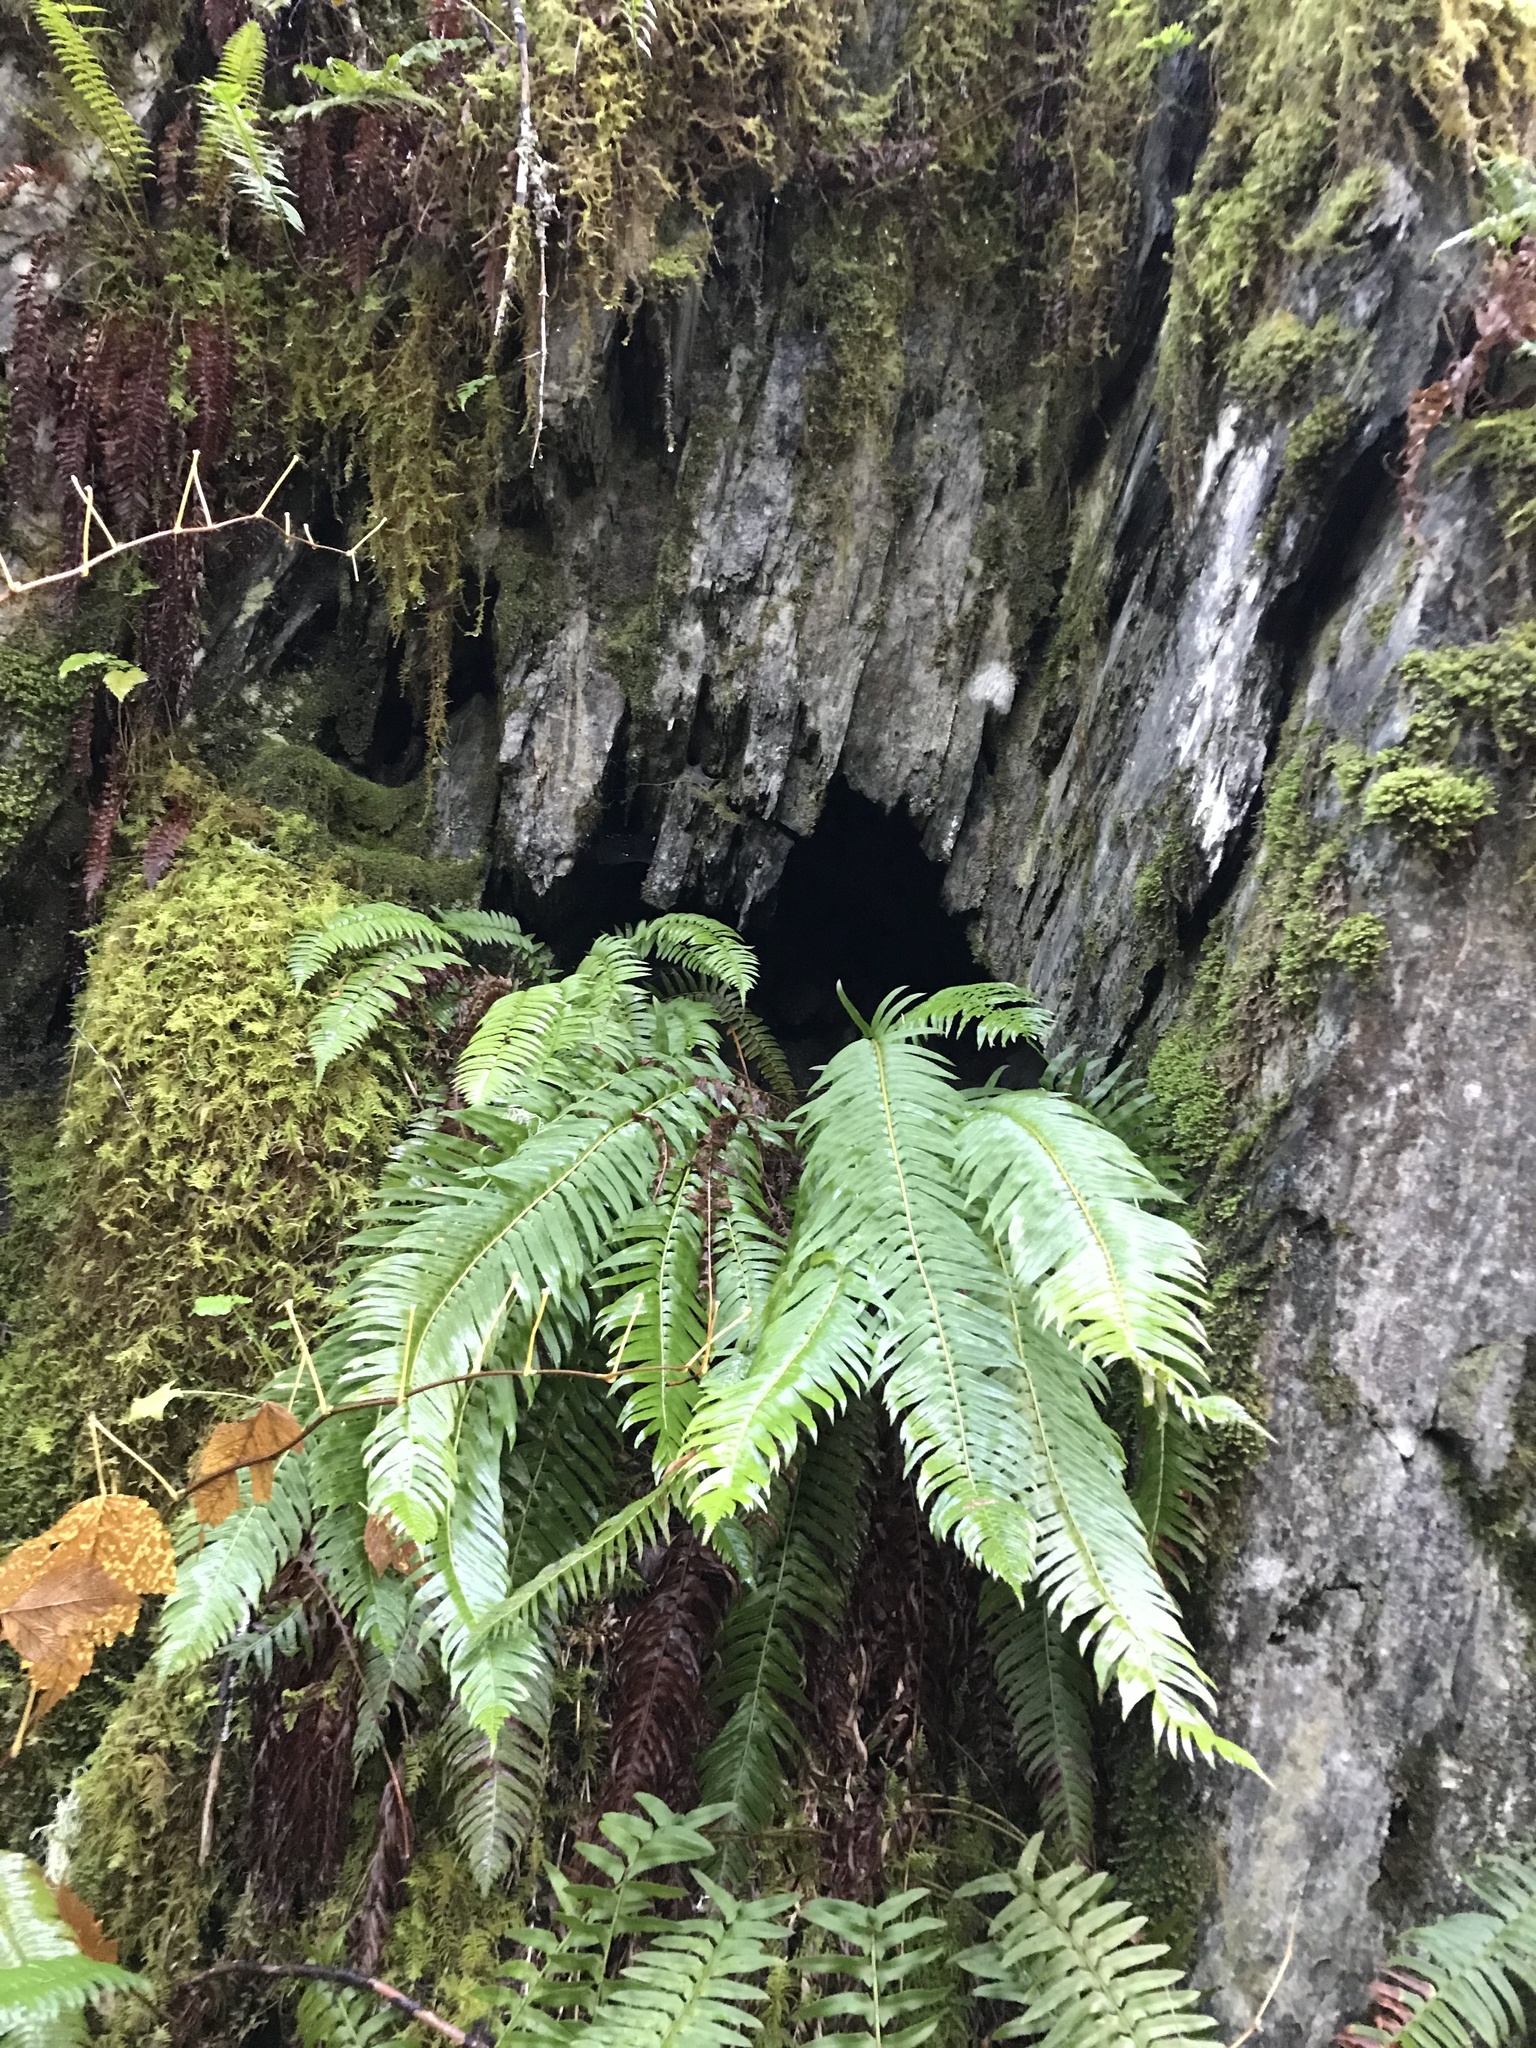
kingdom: Plantae
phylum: Tracheophyta
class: Polypodiopsida
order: Polypodiales
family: Dryopteridaceae
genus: Polystichum
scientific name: Polystichum munitum
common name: Western sword-fern
